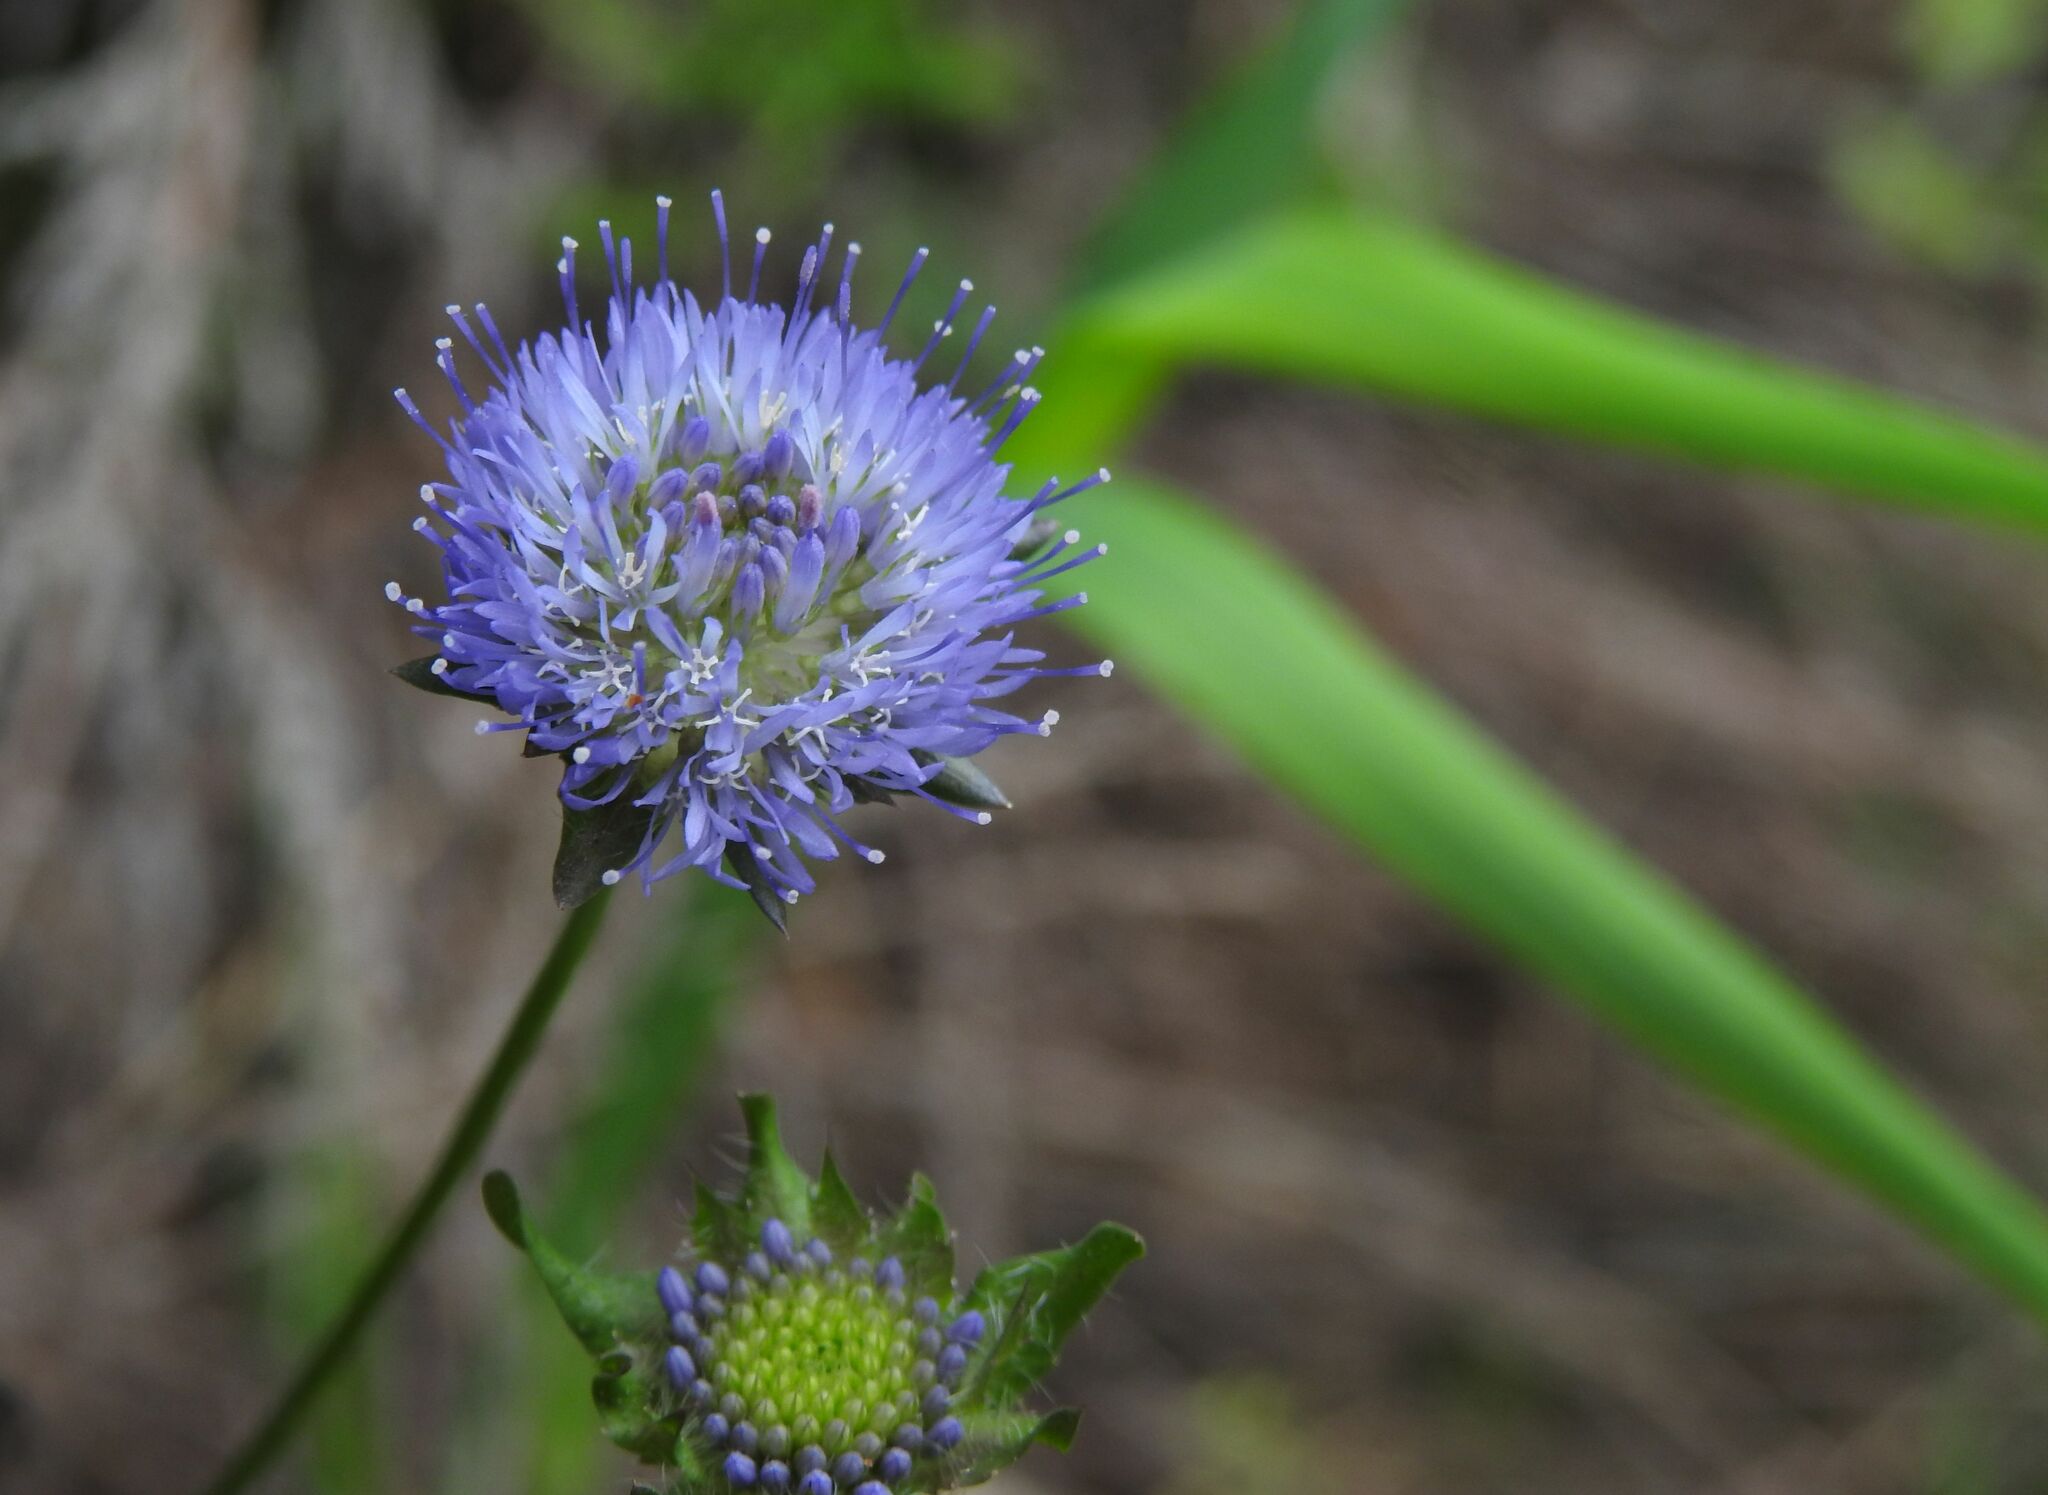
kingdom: Plantae
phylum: Tracheophyta
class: Magnoliopsida
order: Asterales
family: Campanulaceae
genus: Jasione
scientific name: Jasione montana
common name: Sheep's-bit
